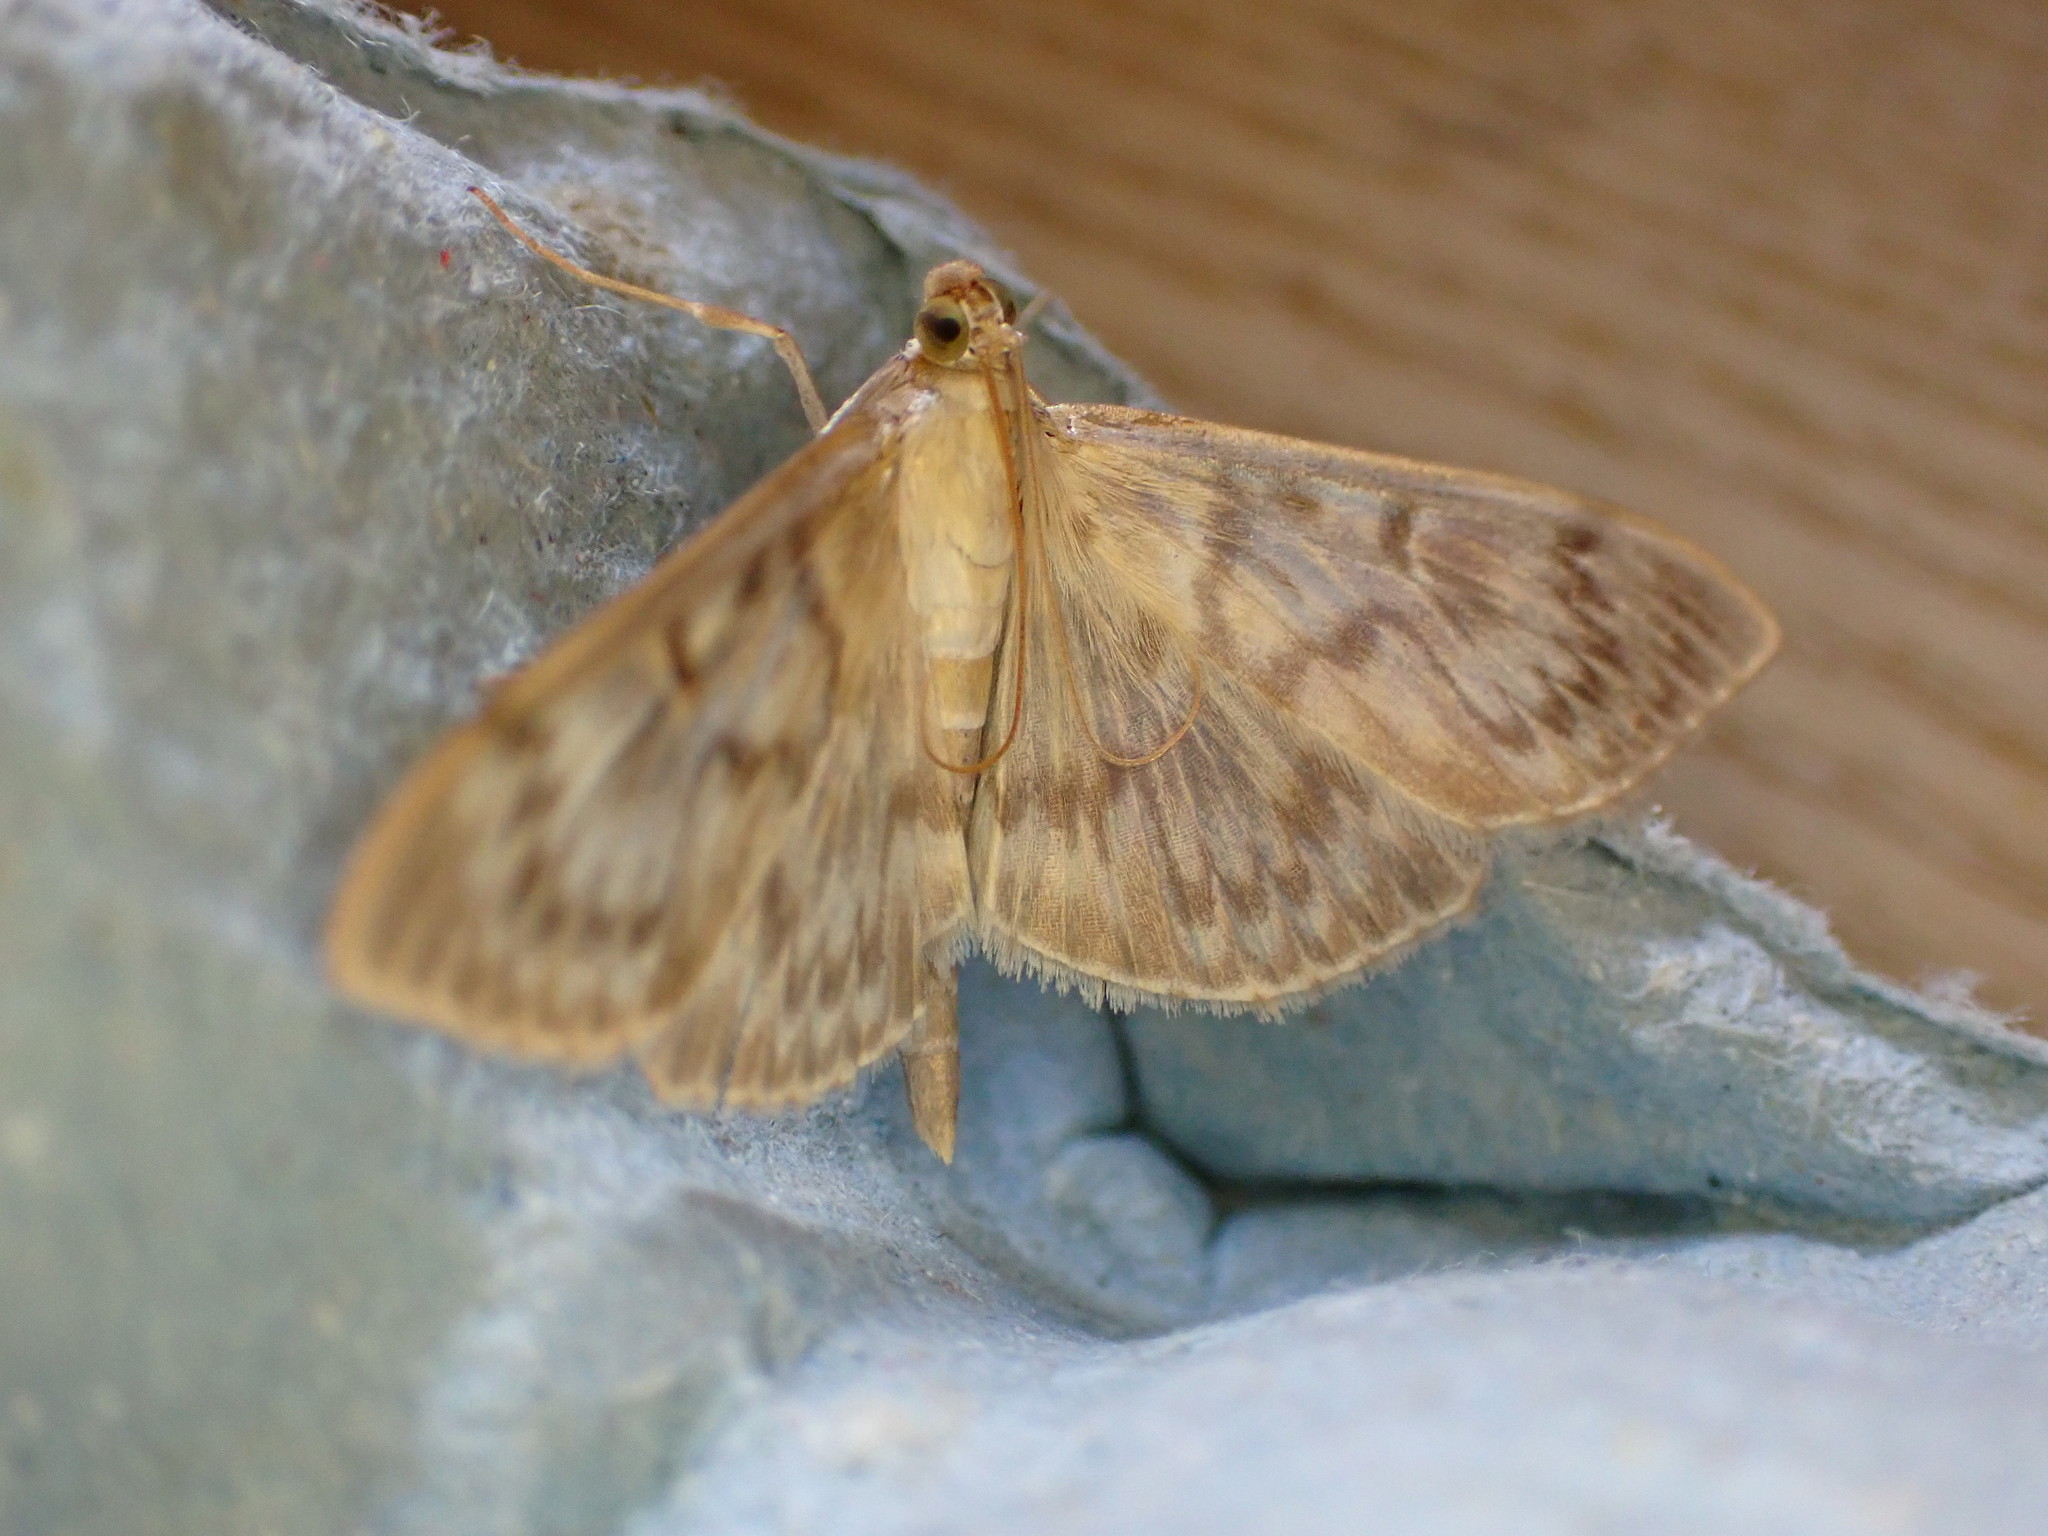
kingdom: Animalia
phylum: Arthropoda
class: Insecta
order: Lepidoptera
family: Crambidae
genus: Patania
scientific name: Patania ruralis
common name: Mother of pearl
